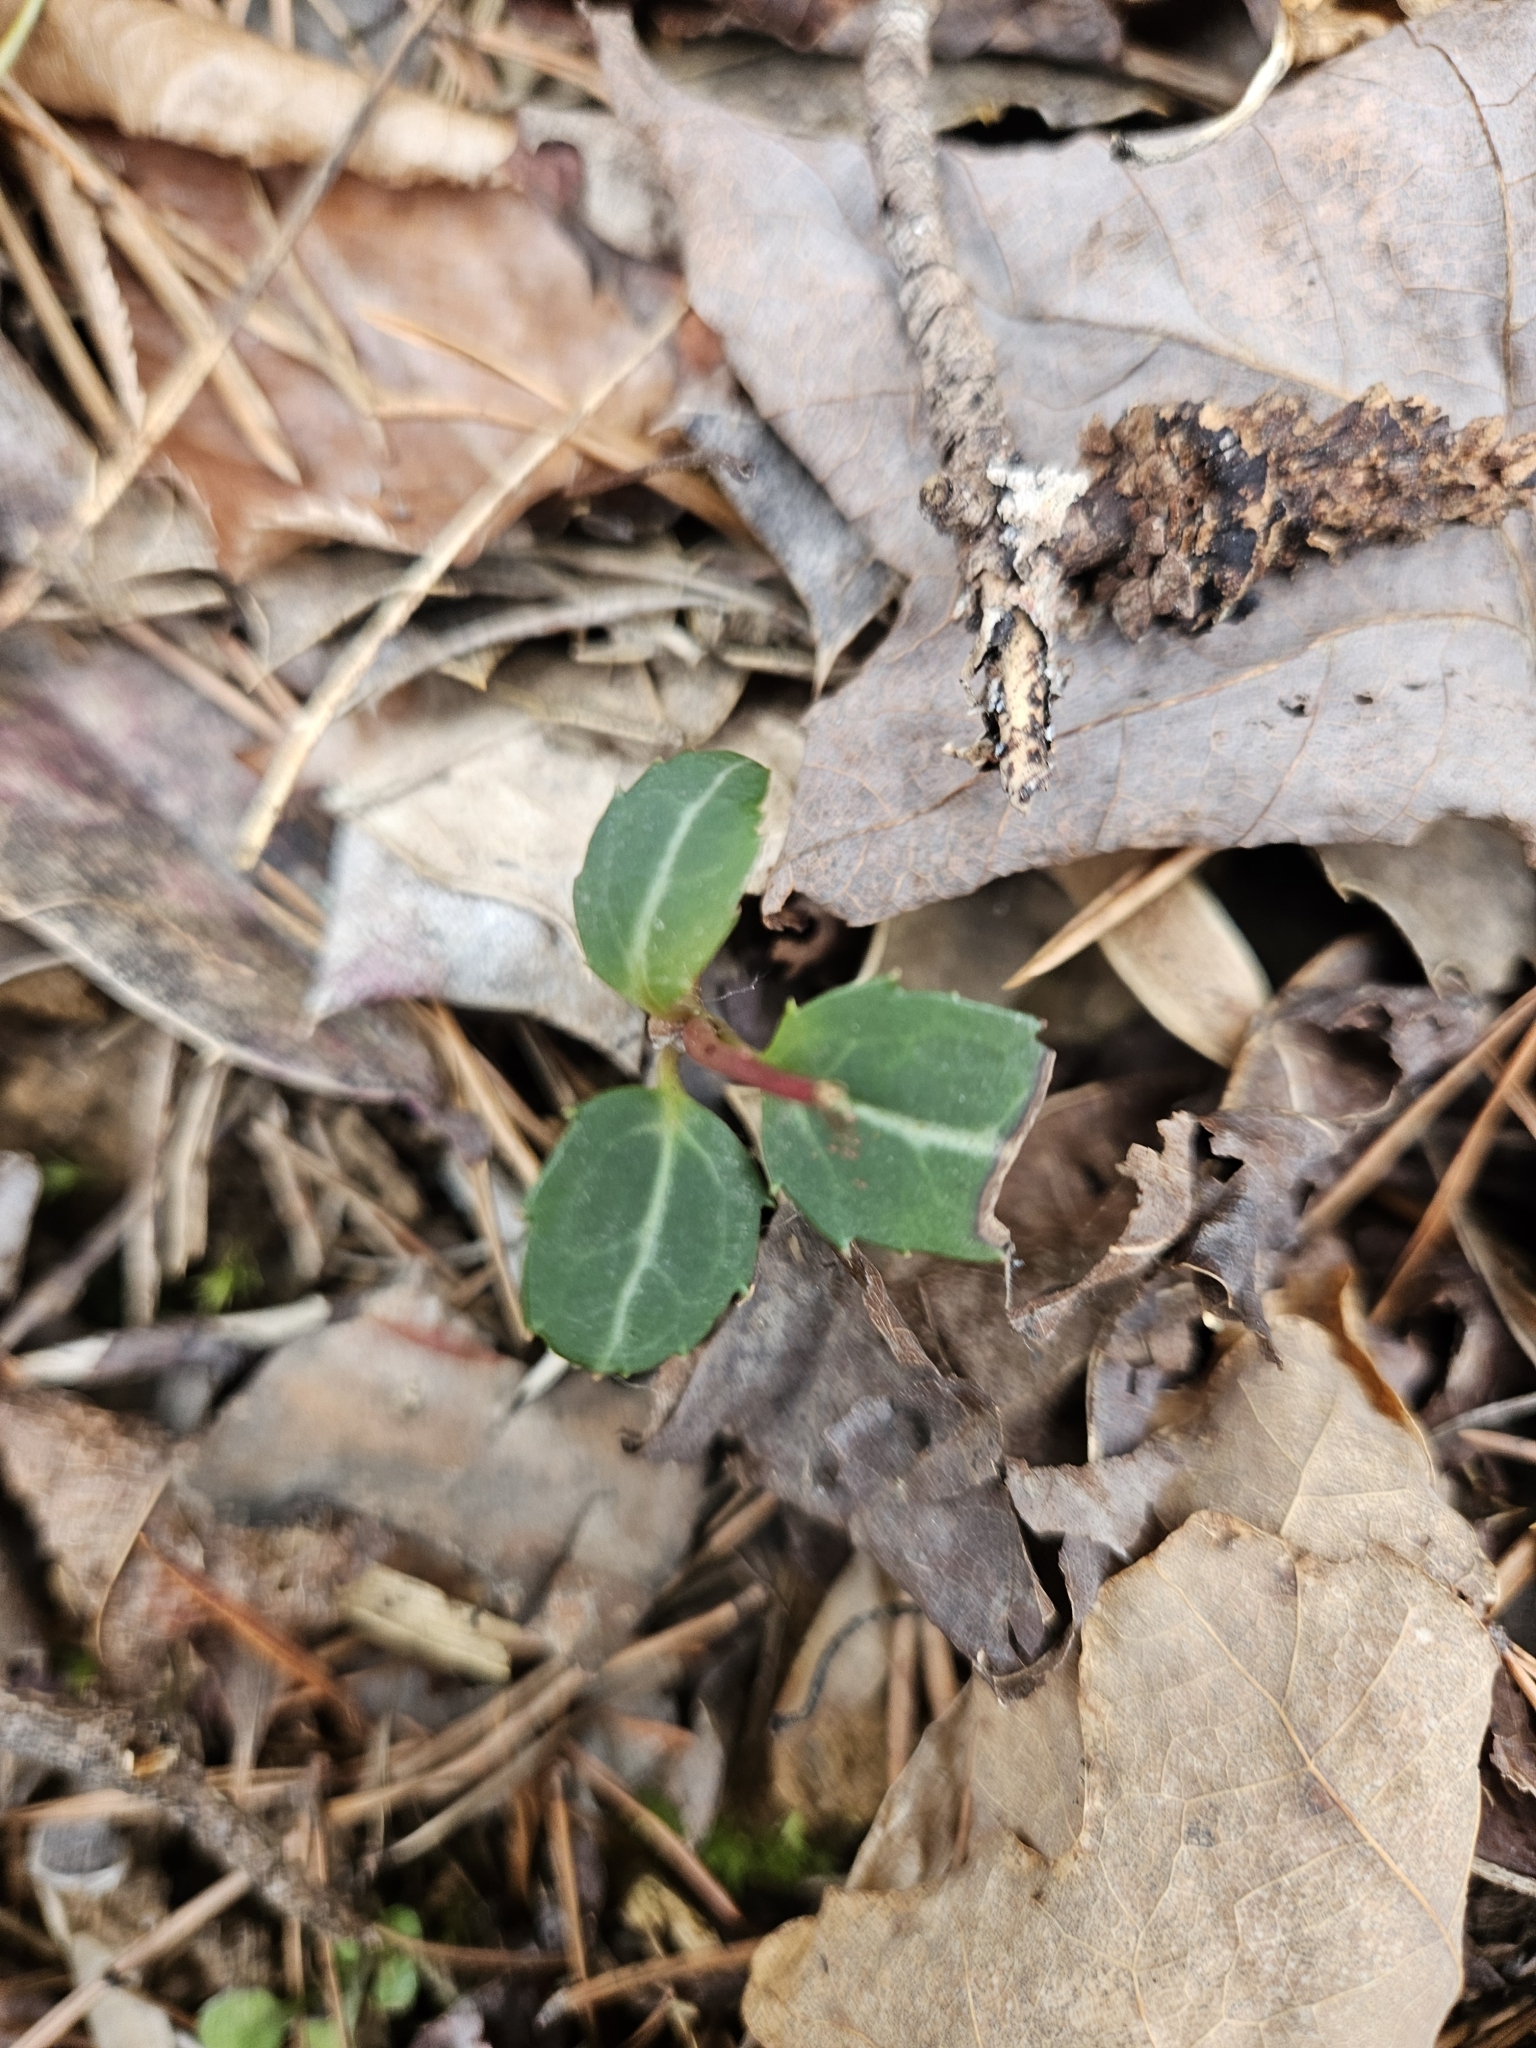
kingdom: Plantae
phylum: Tracheophyta
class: Magnoliopsida
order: Ericales
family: Ericaceae
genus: Chimaphila
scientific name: Chimaphila maculata
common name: Spotted pipsissewa
